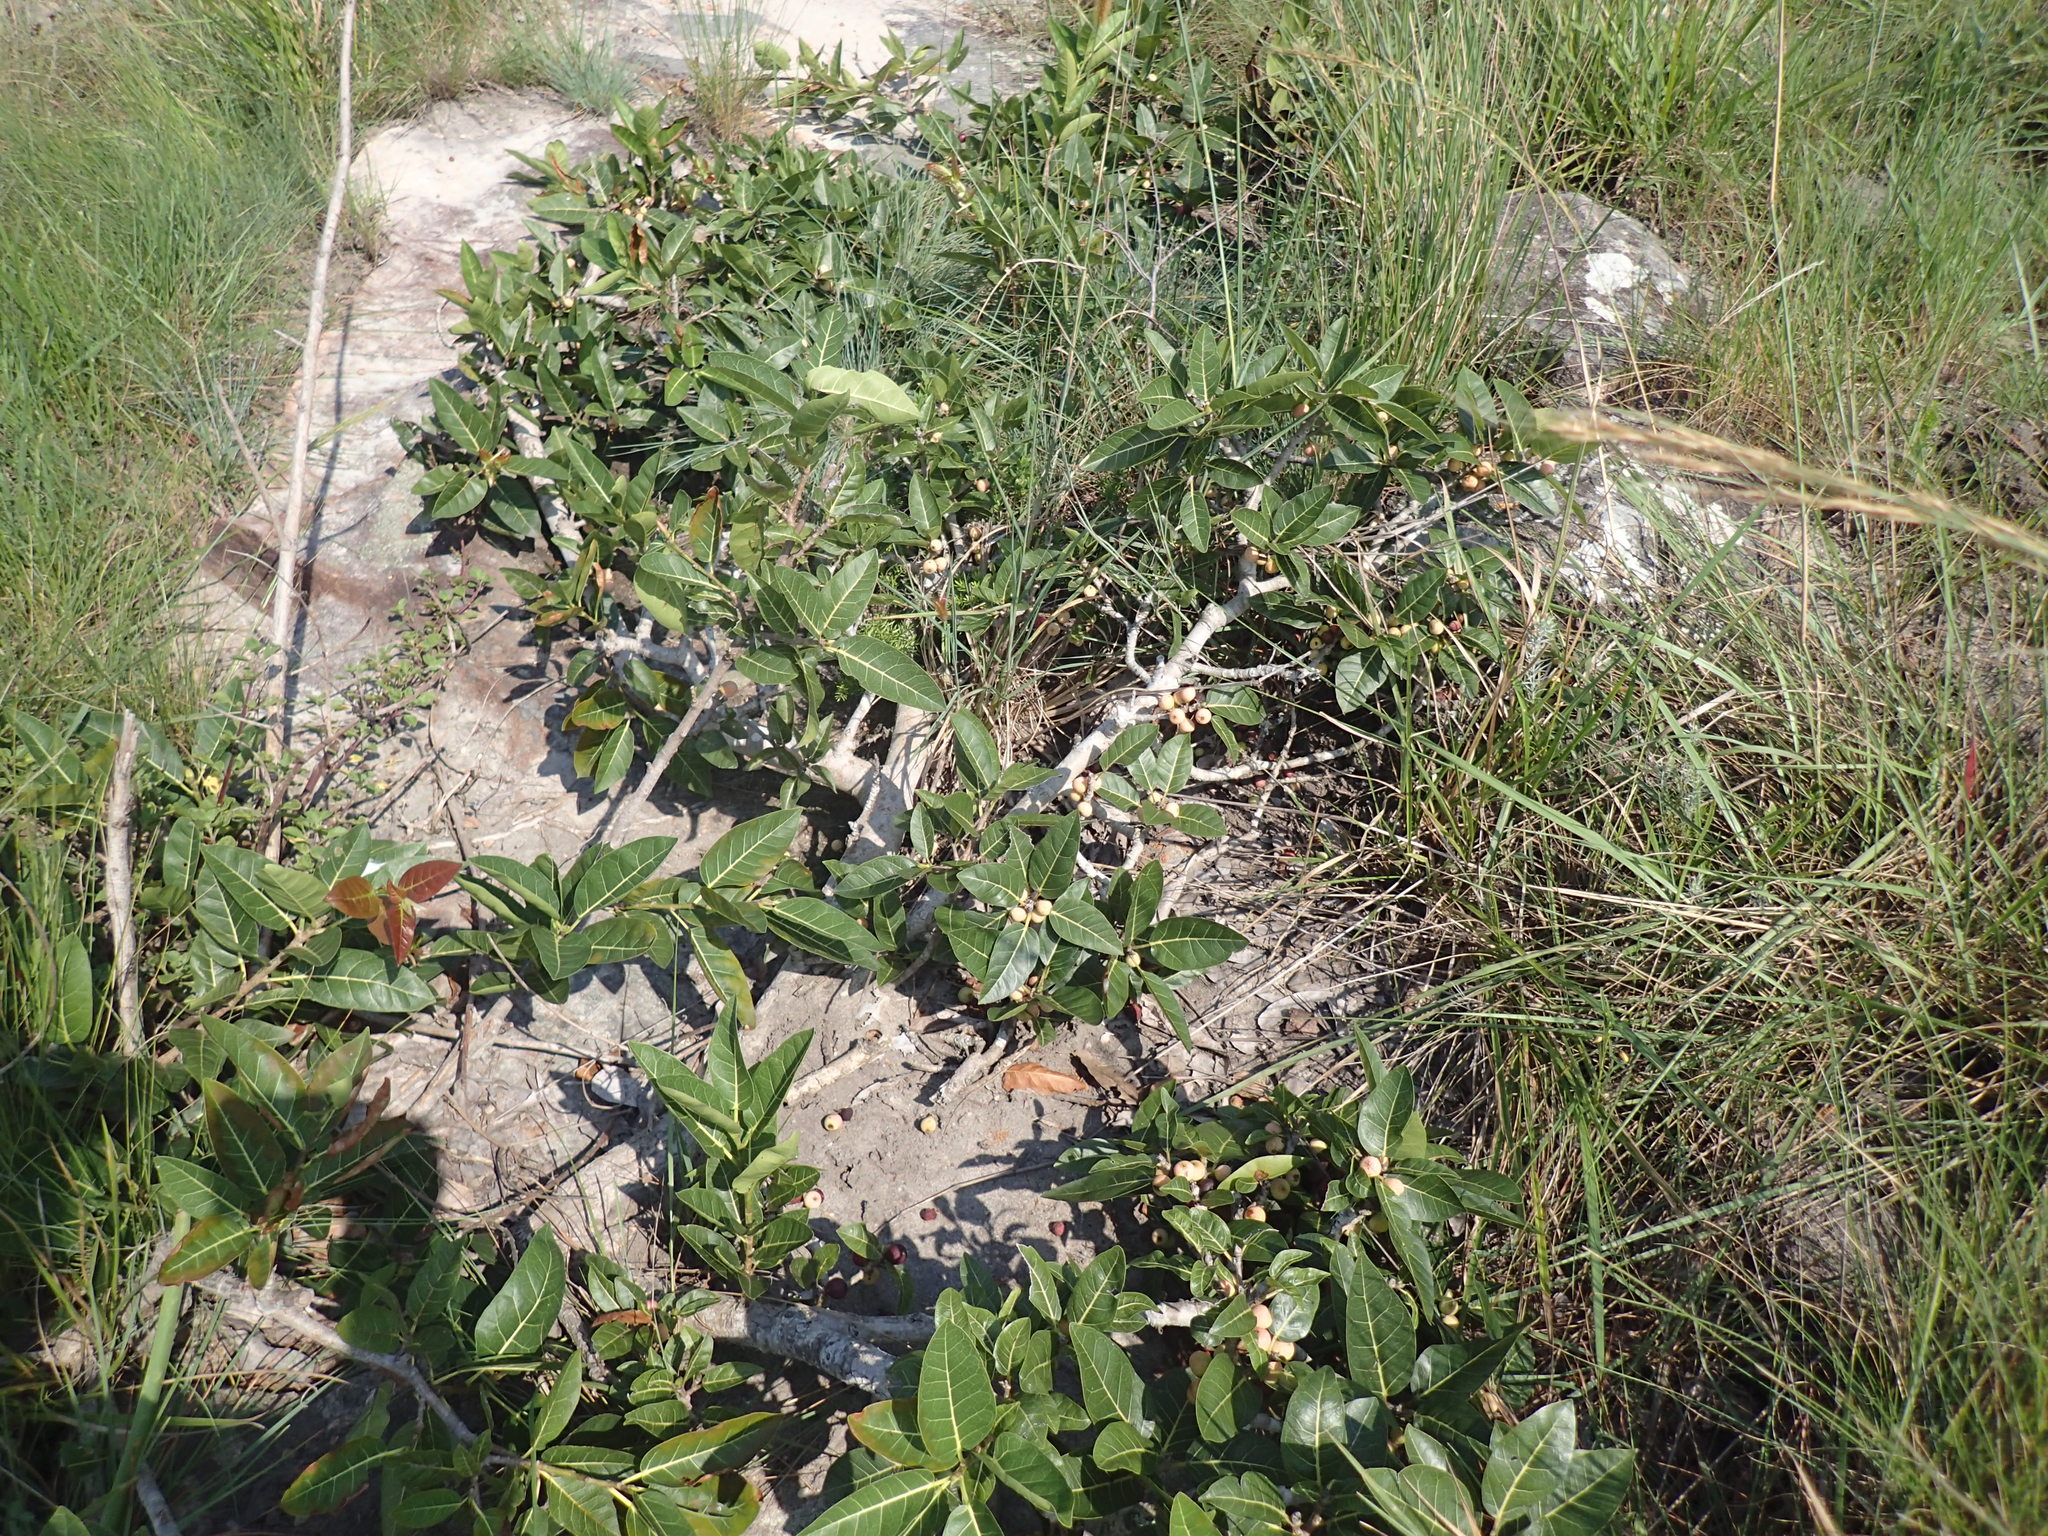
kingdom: Plantae
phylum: Tracheophyta
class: Magnoliopsida
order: Rosales
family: Moraceae
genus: Ficus
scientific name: Ficus ingens
